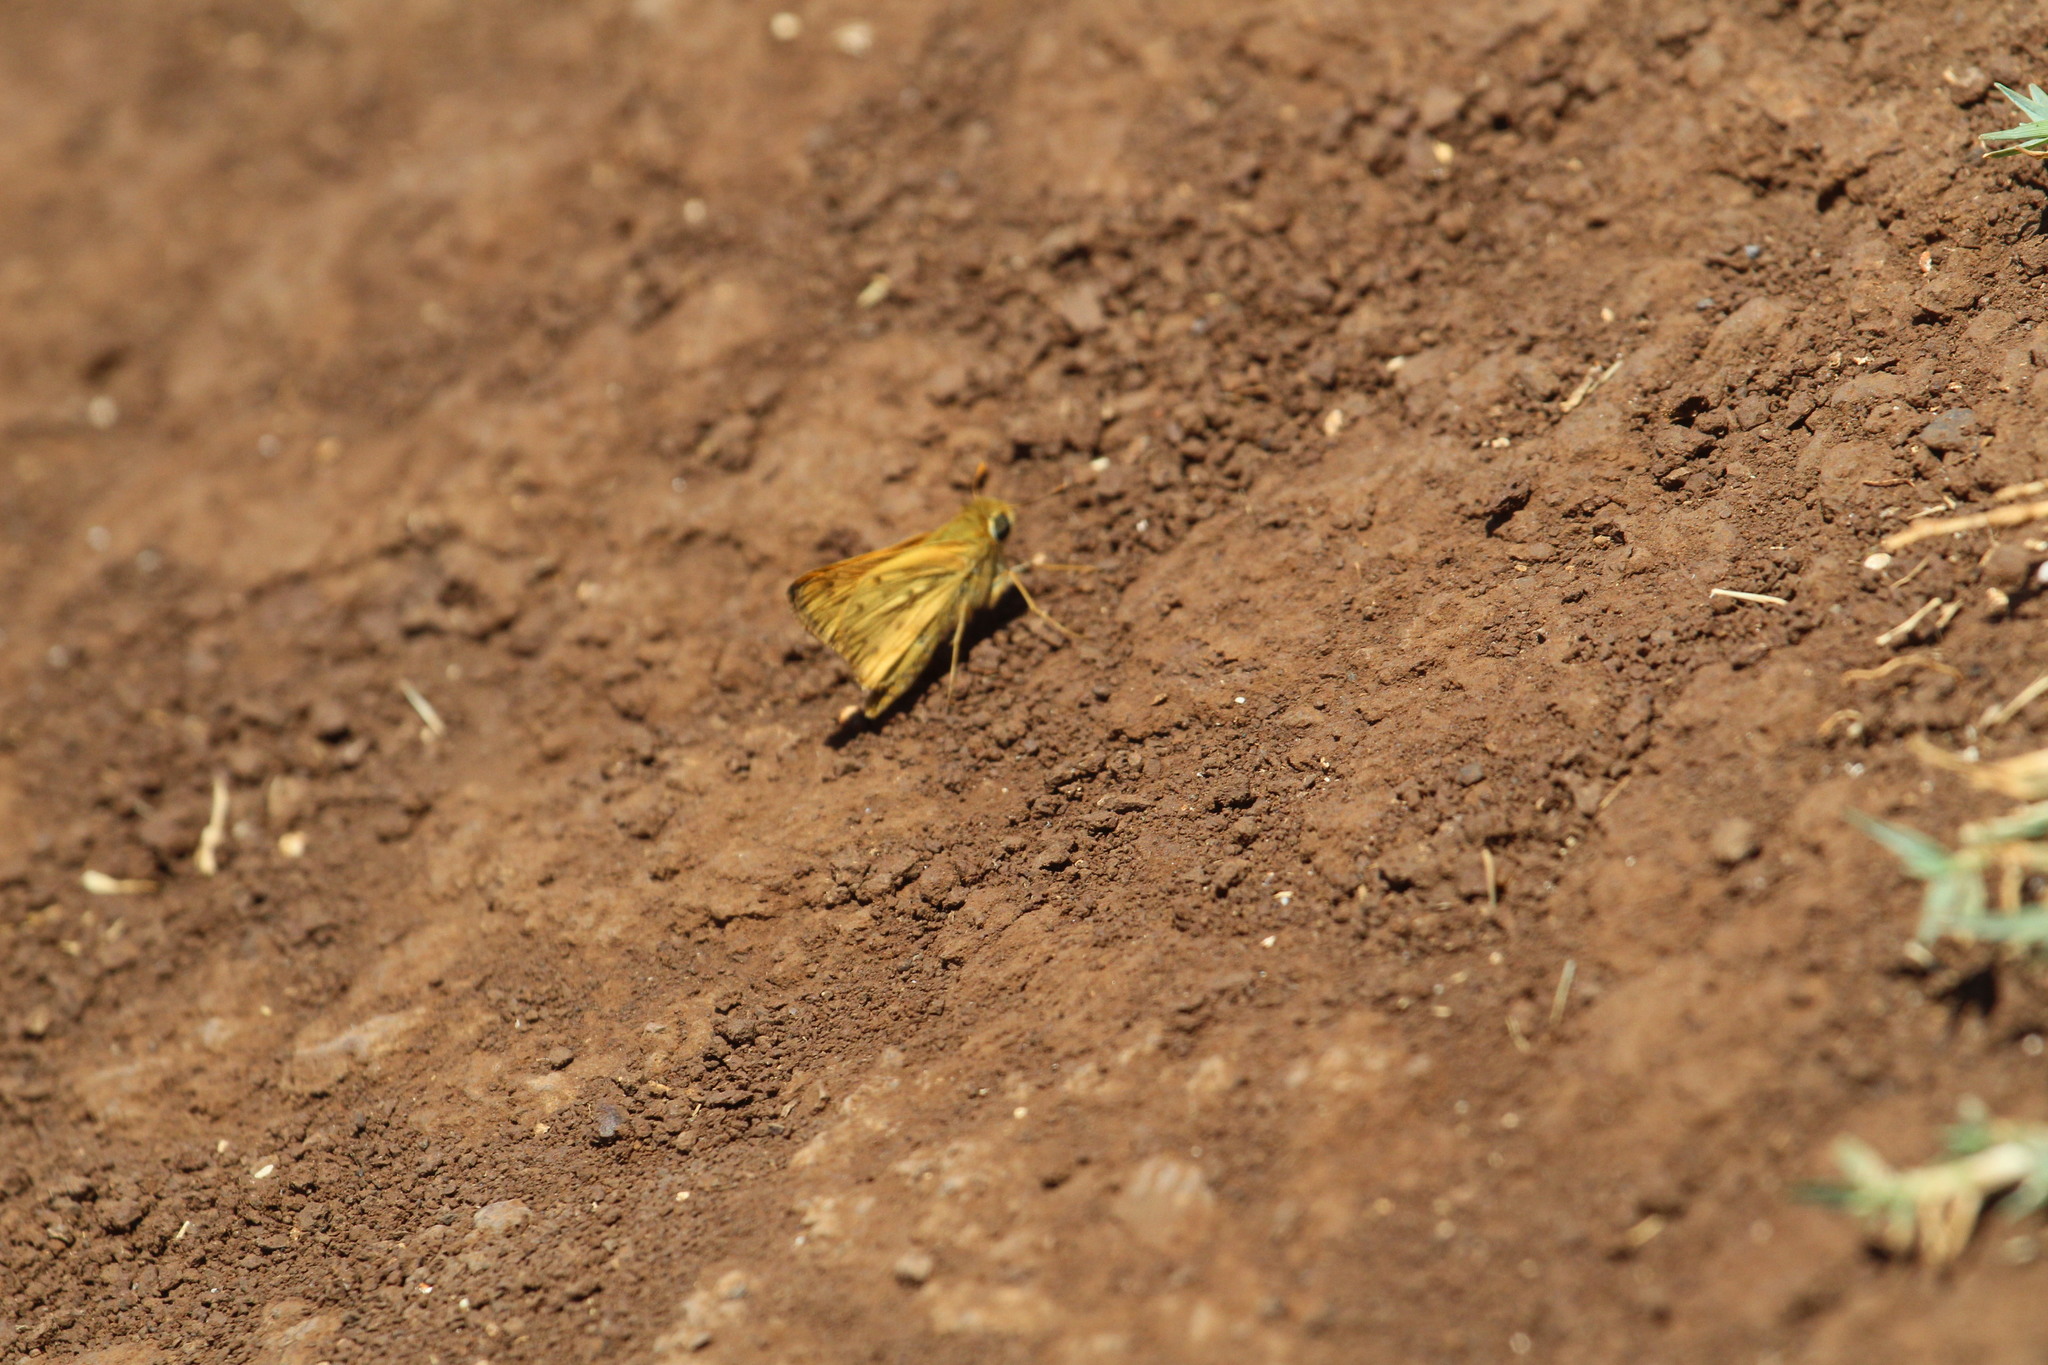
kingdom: Animalia
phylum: Arthropoda
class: Insecta
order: Lepidoptera
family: Hesperiidae
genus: Hylephila
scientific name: Hylephila phyleus
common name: Fiery skipper
